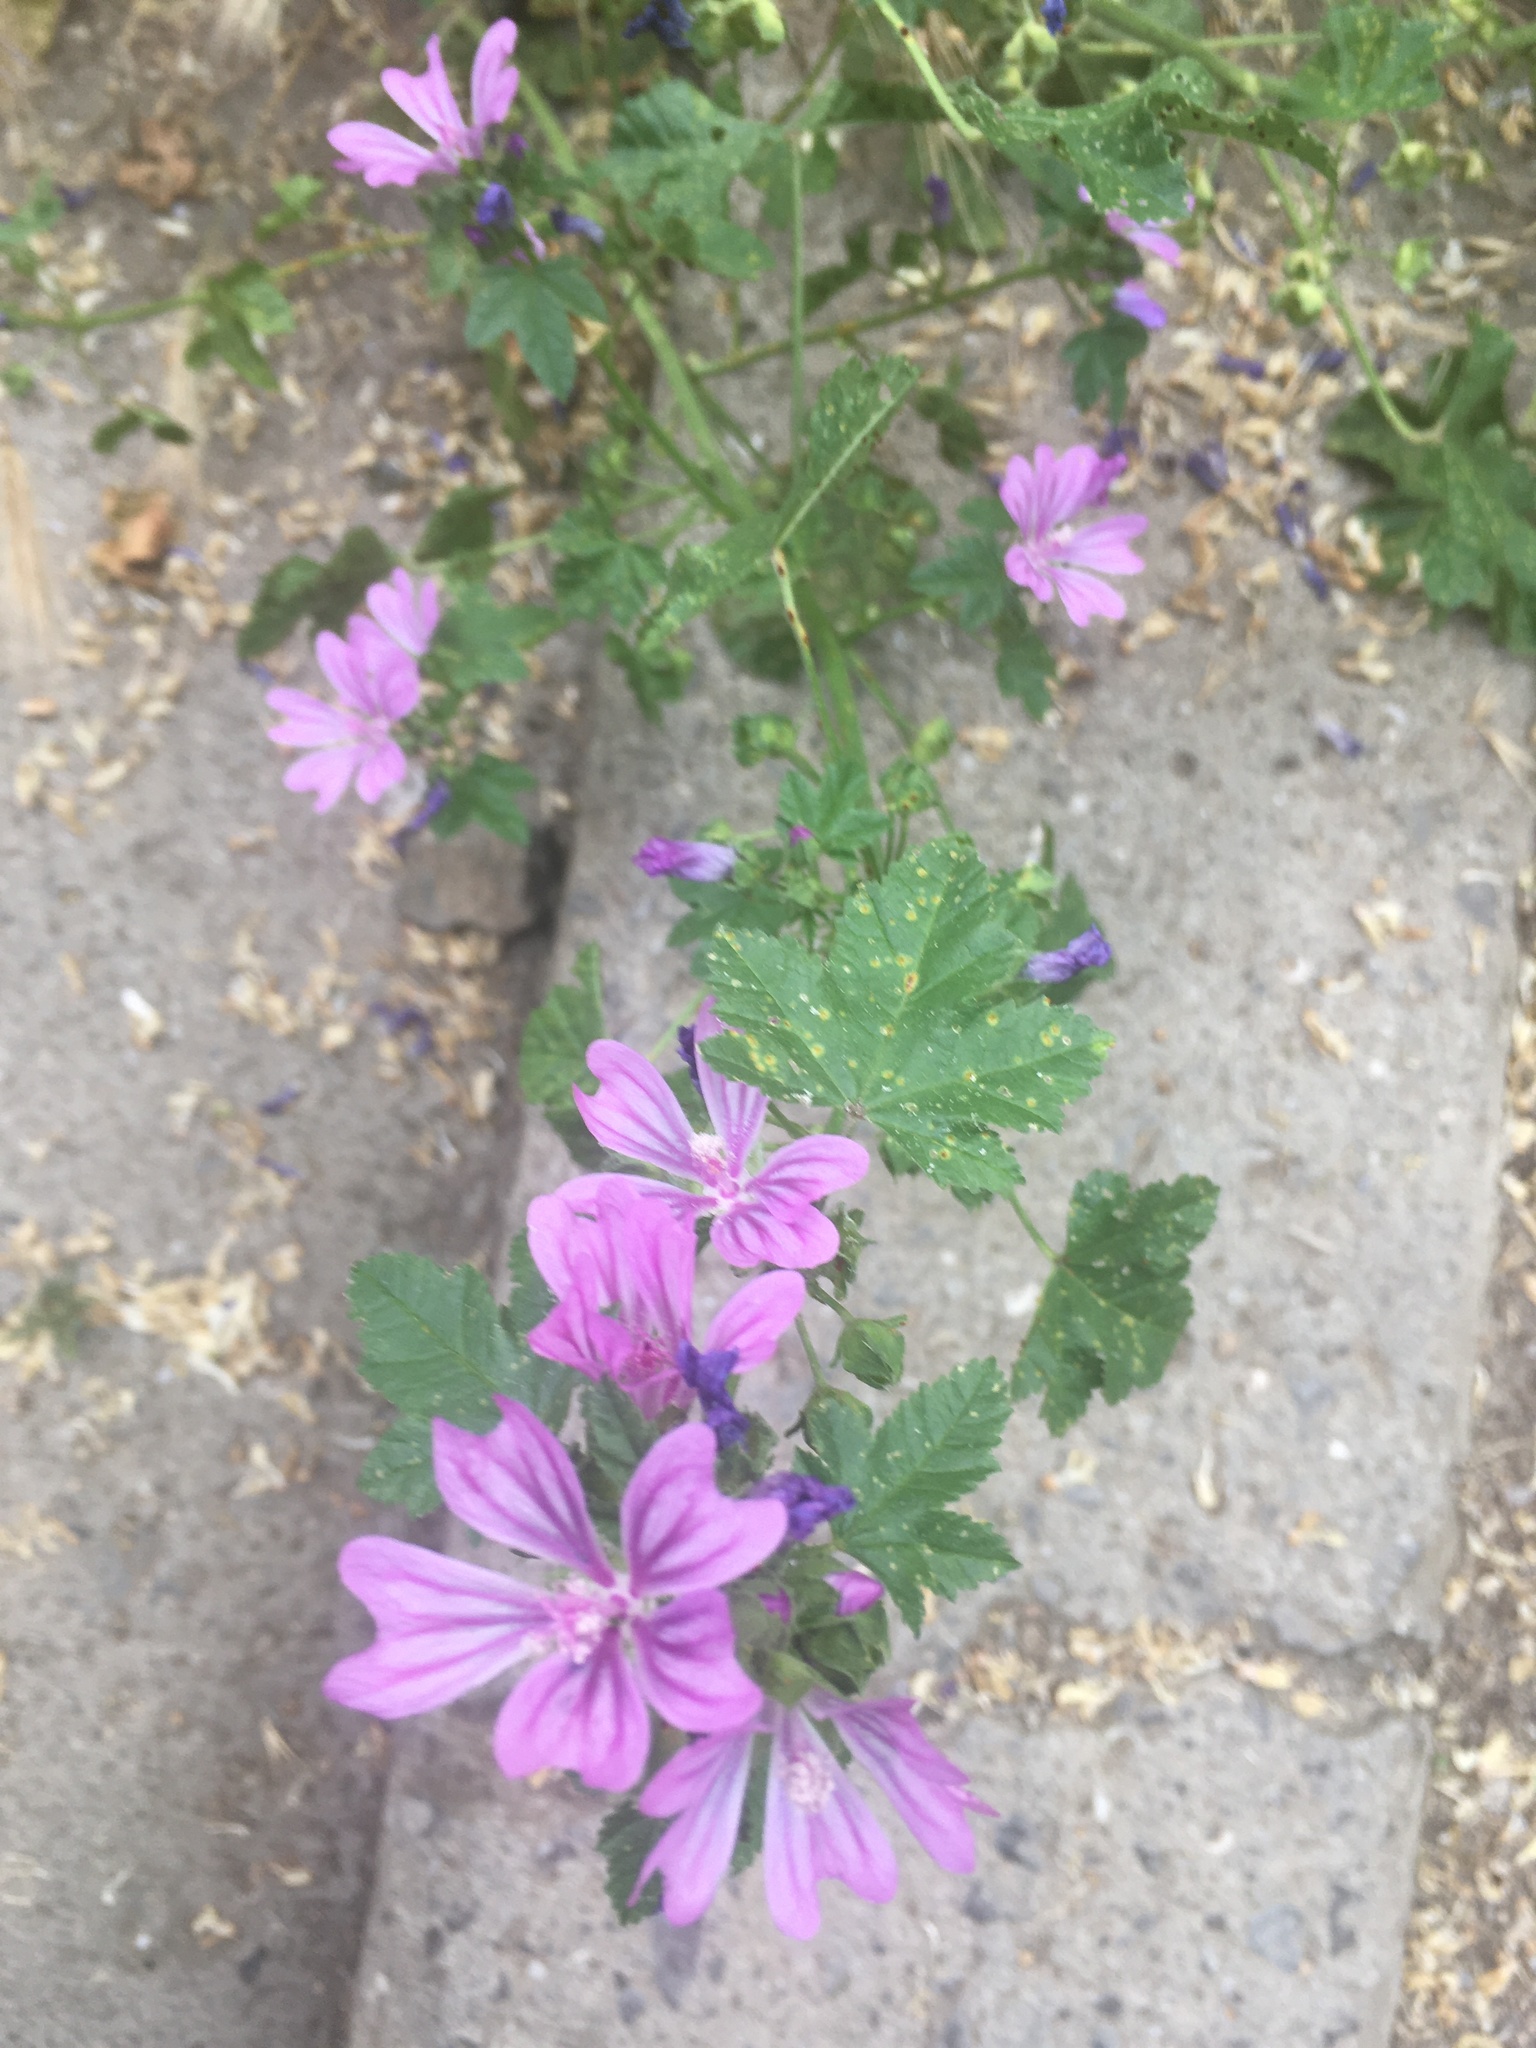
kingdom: Plantae
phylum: Tracheophyta
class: Magnoliopsida
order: Malvales
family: Malvaceae
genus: Malva
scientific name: Malva sylvestris
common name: Common mallow
